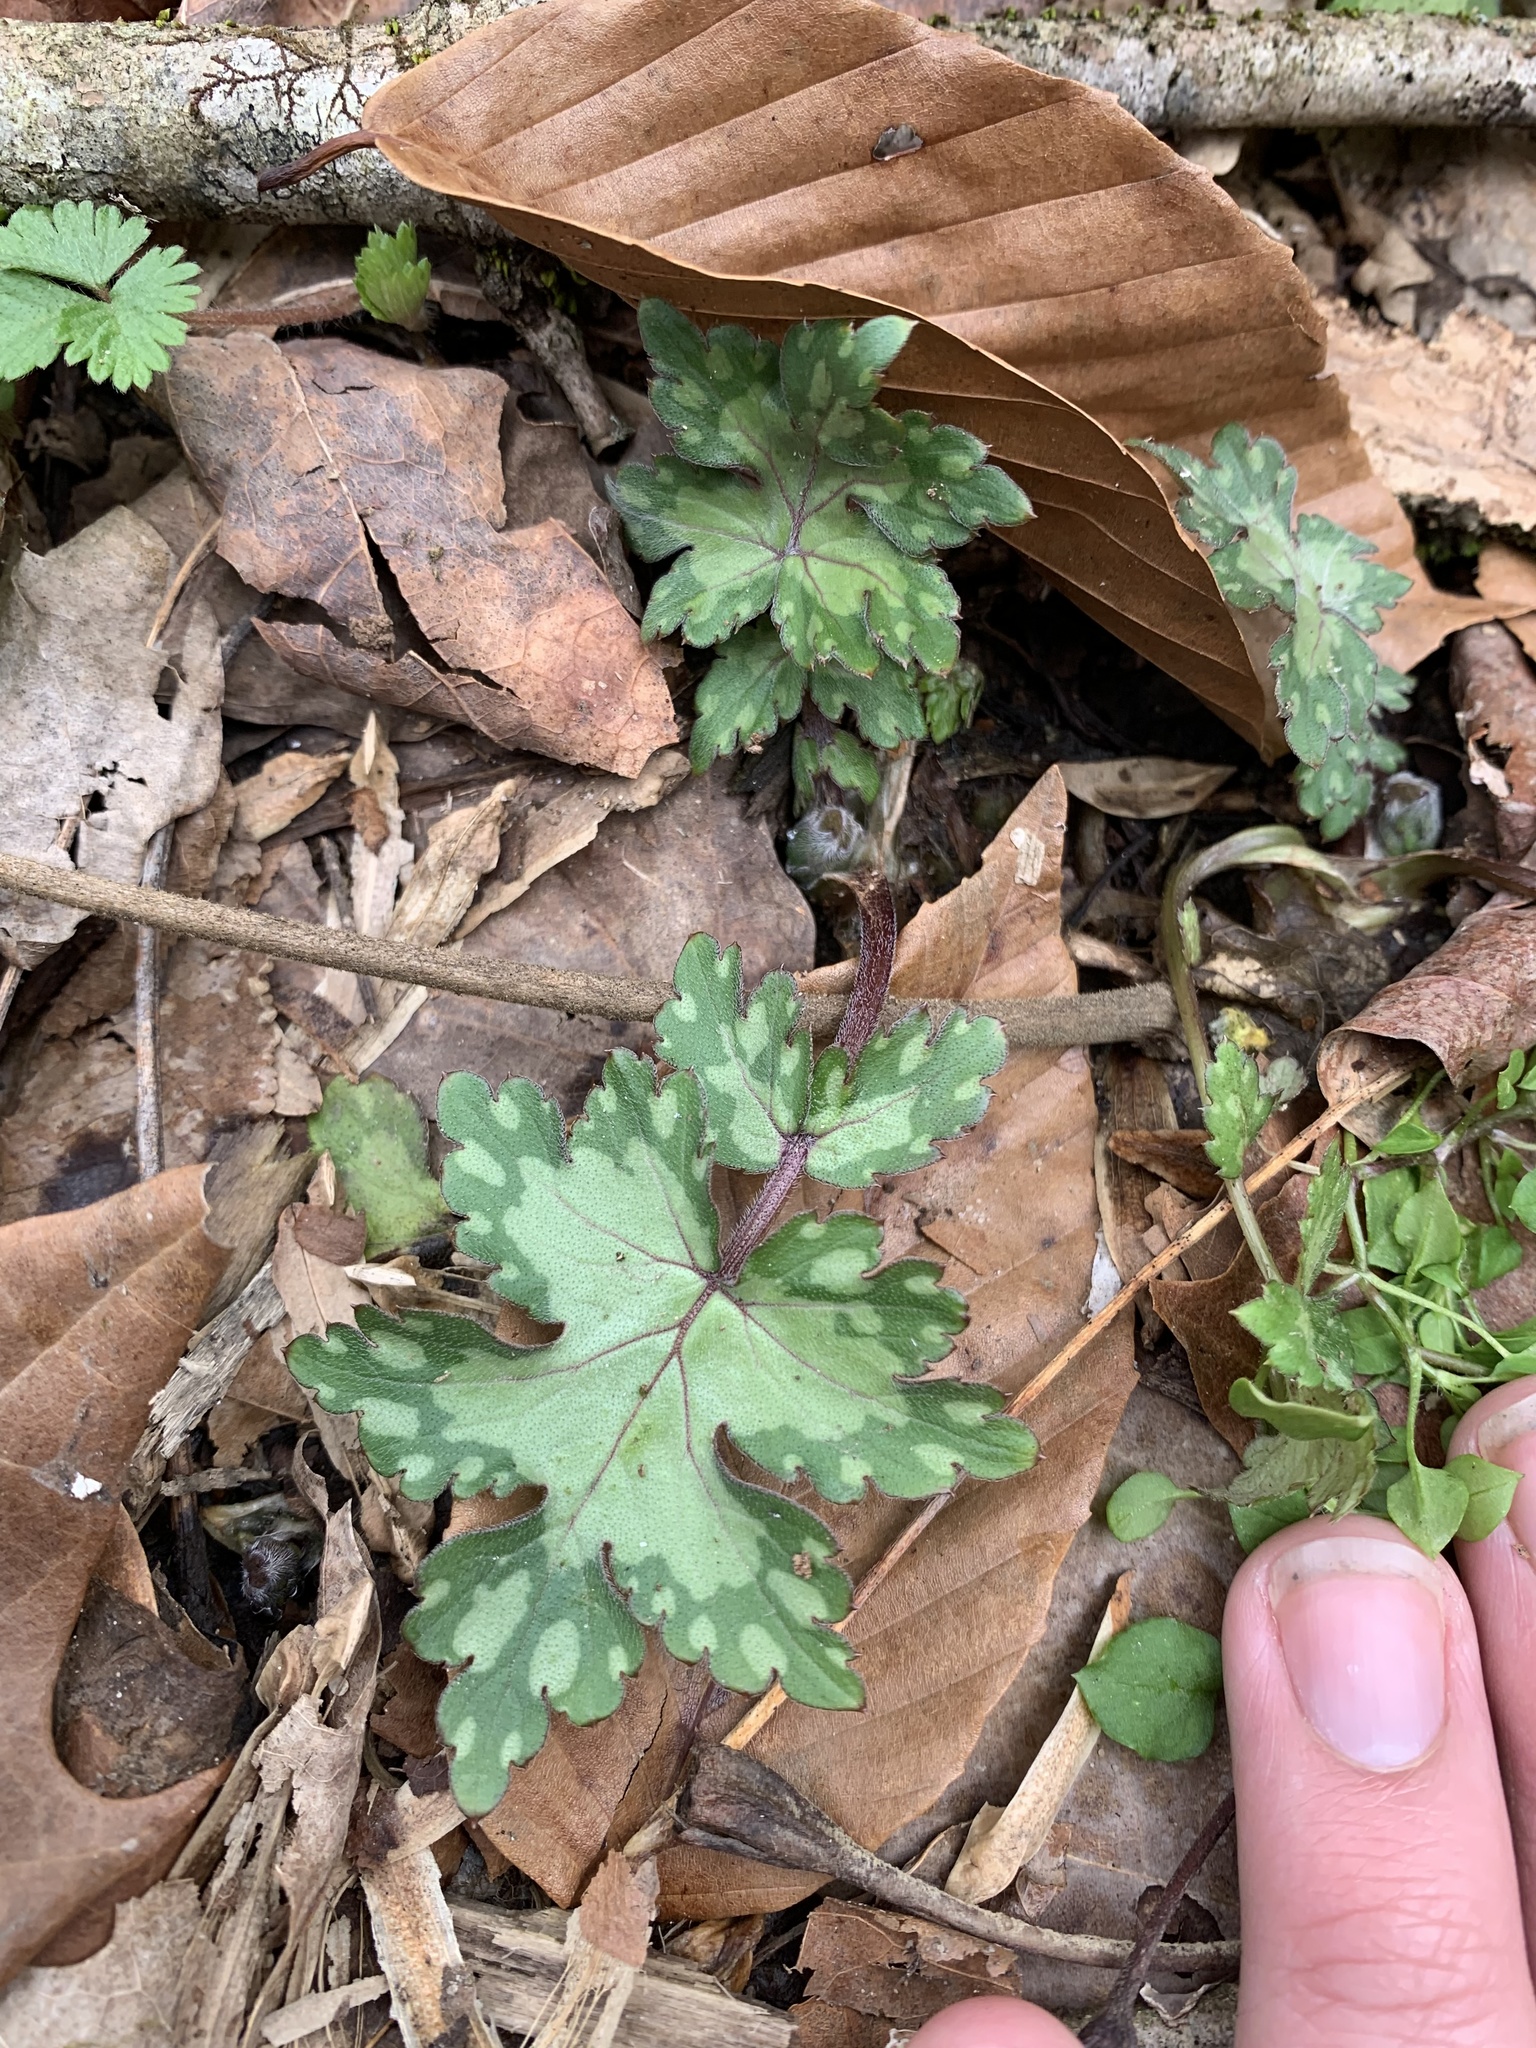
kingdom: Plantae
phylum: Tracheophyta
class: Magnoliopsida
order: Boraginales
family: Hydrophyllaceae
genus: Hydrophyllum
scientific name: Hydrophyllum appendiculatum
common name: Appendaged waterleaf
